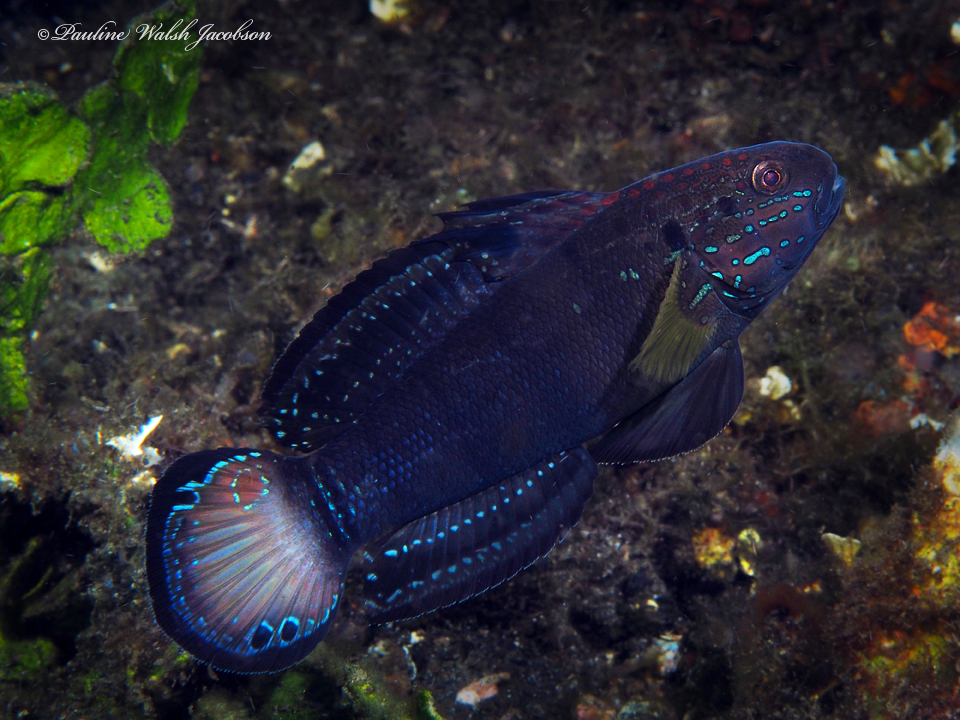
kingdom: Animalia
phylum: Chordata
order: Perciformes
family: Gobiidae
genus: Amblygobius
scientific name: Amblygobius phalaena
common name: Banded goby
